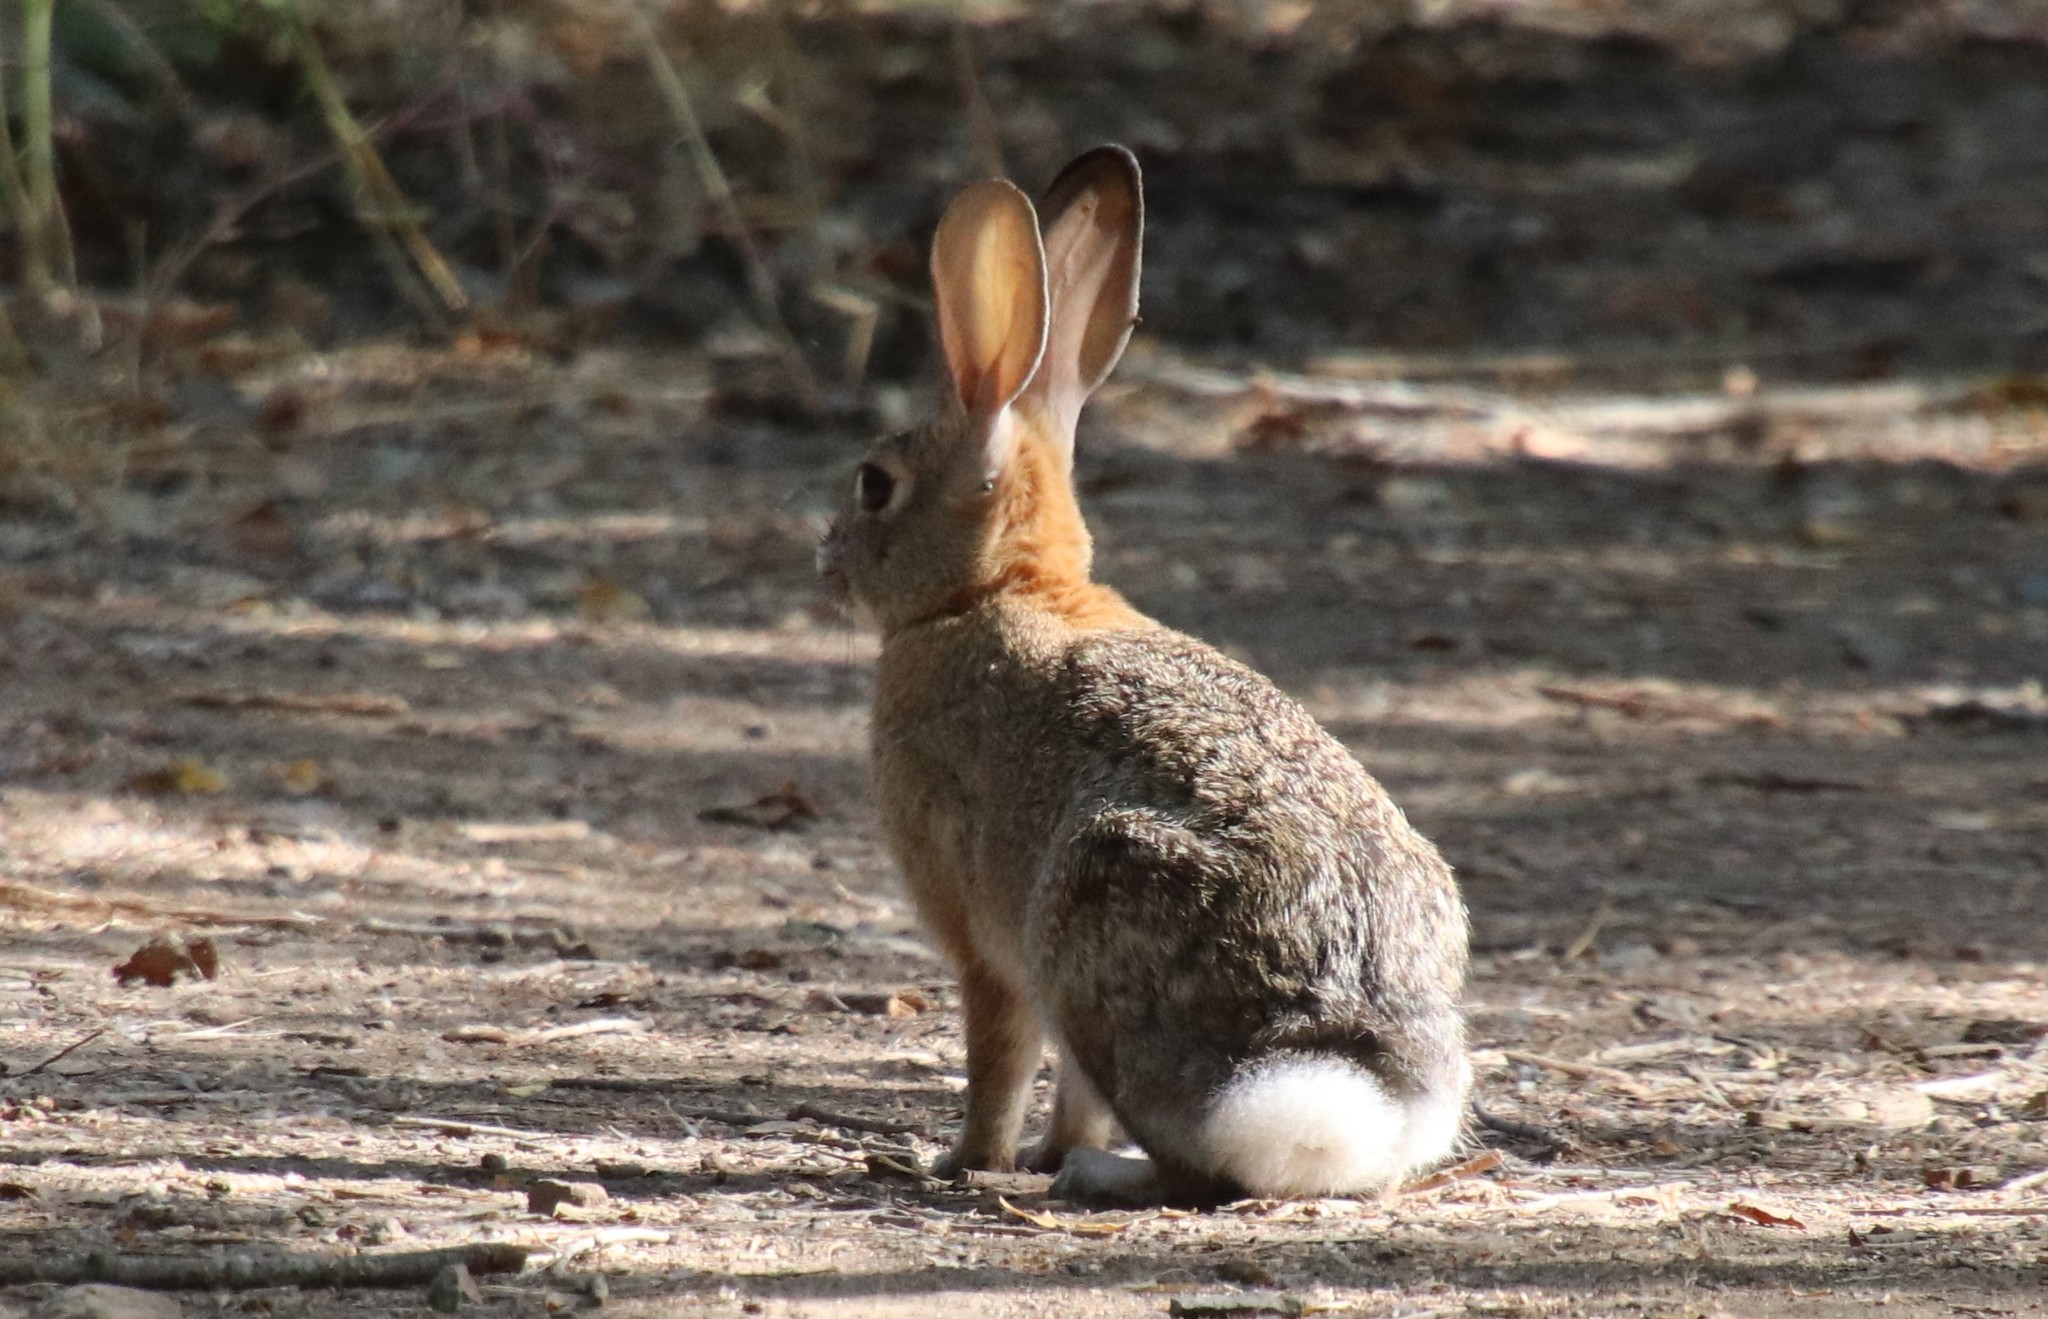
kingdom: Animalia
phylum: Chordata
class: Mammalia
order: Lagomorpha
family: Leporidae
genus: Sylvilagus
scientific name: Sylvilagus audubonii
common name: Desert cottontail
